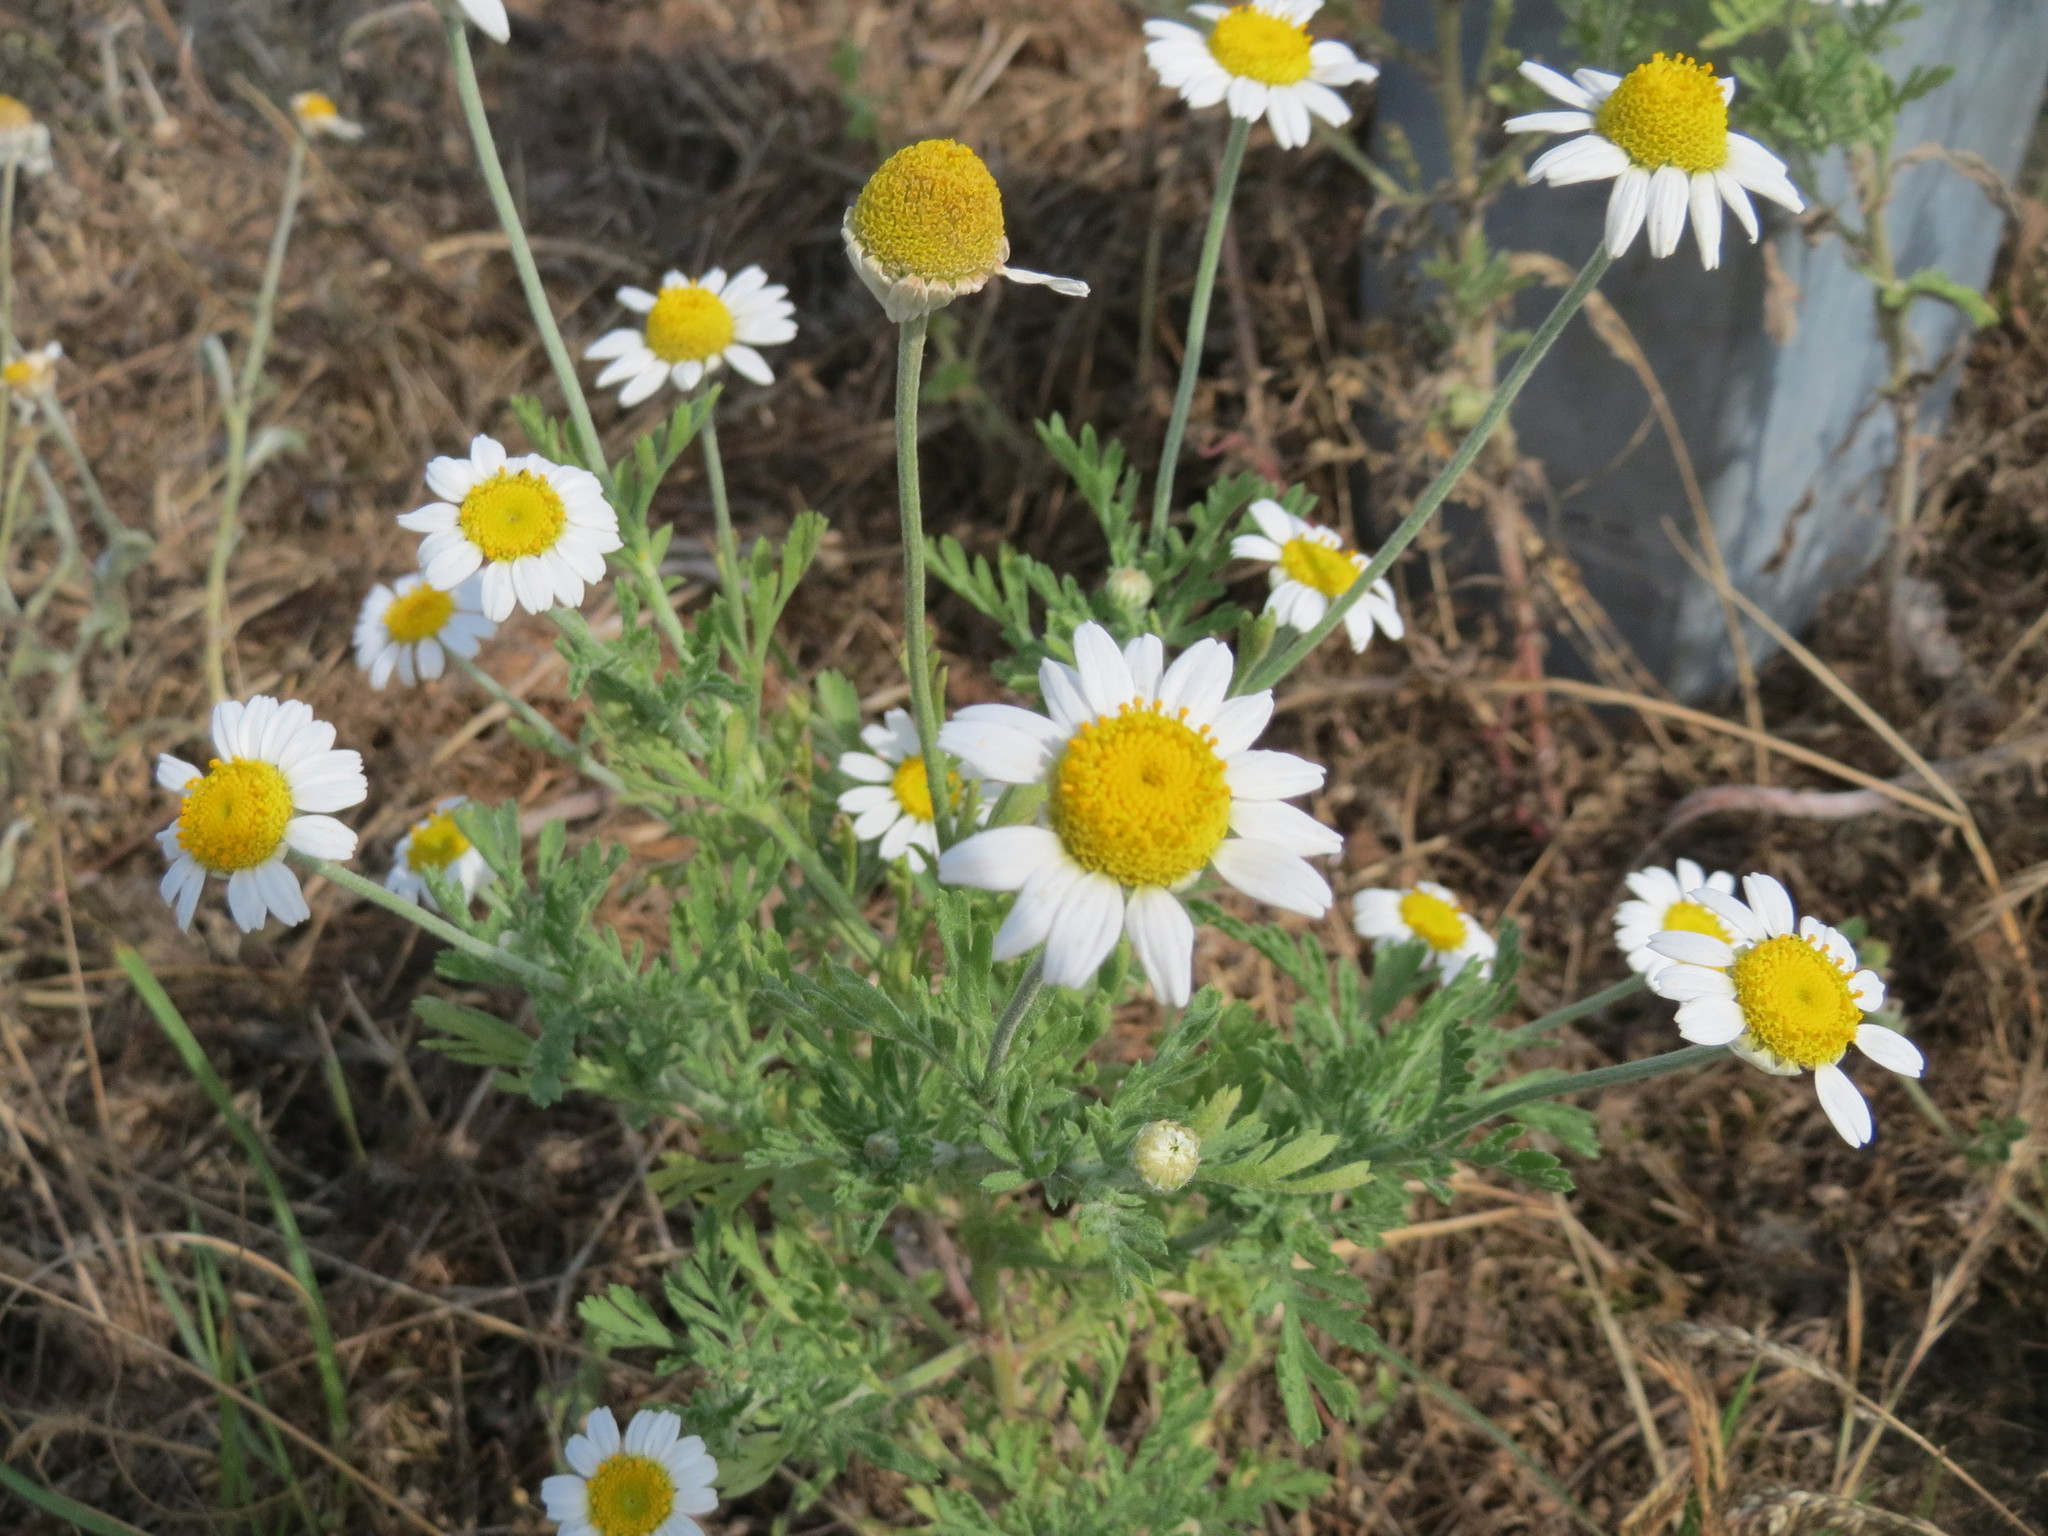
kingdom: Plantae
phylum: Tracheophyta
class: Magnoliopsida
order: Asterales
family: Asteraceae
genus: Anthemis
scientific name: Anthemis arvensis
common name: Corn chamomile
